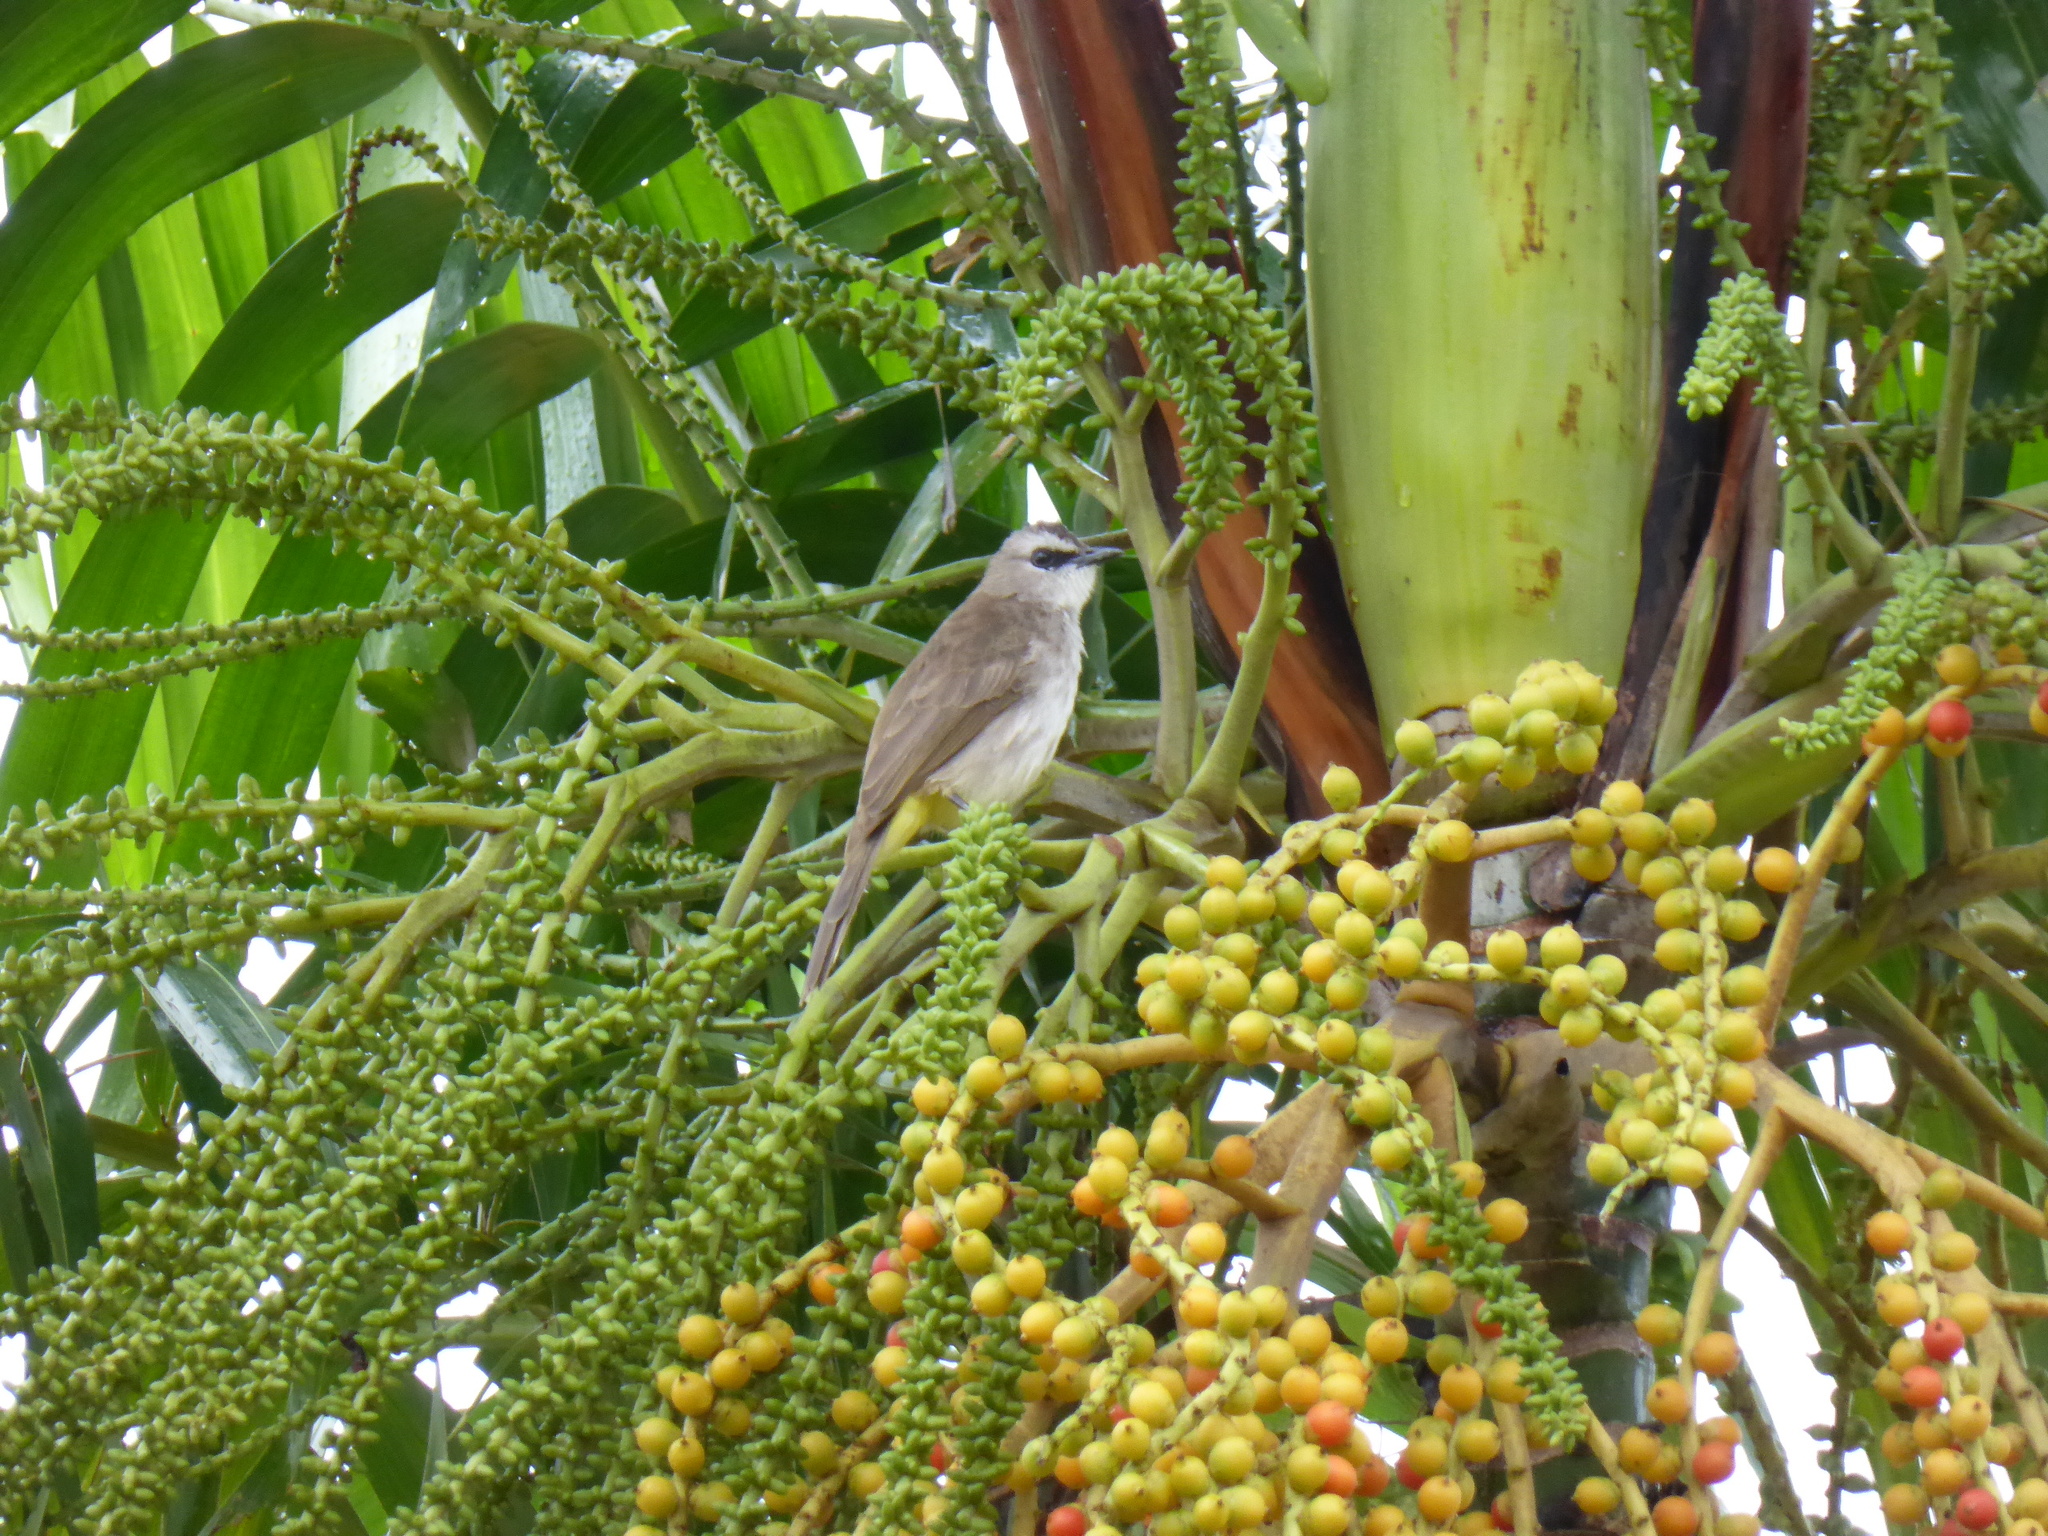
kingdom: Animalia
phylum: Chordata
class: Aves
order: Passeriformes
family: Pycnonotidae
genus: Pycnonotus
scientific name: Pycnonotus goiavier
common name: Yellow-vented bulbul
